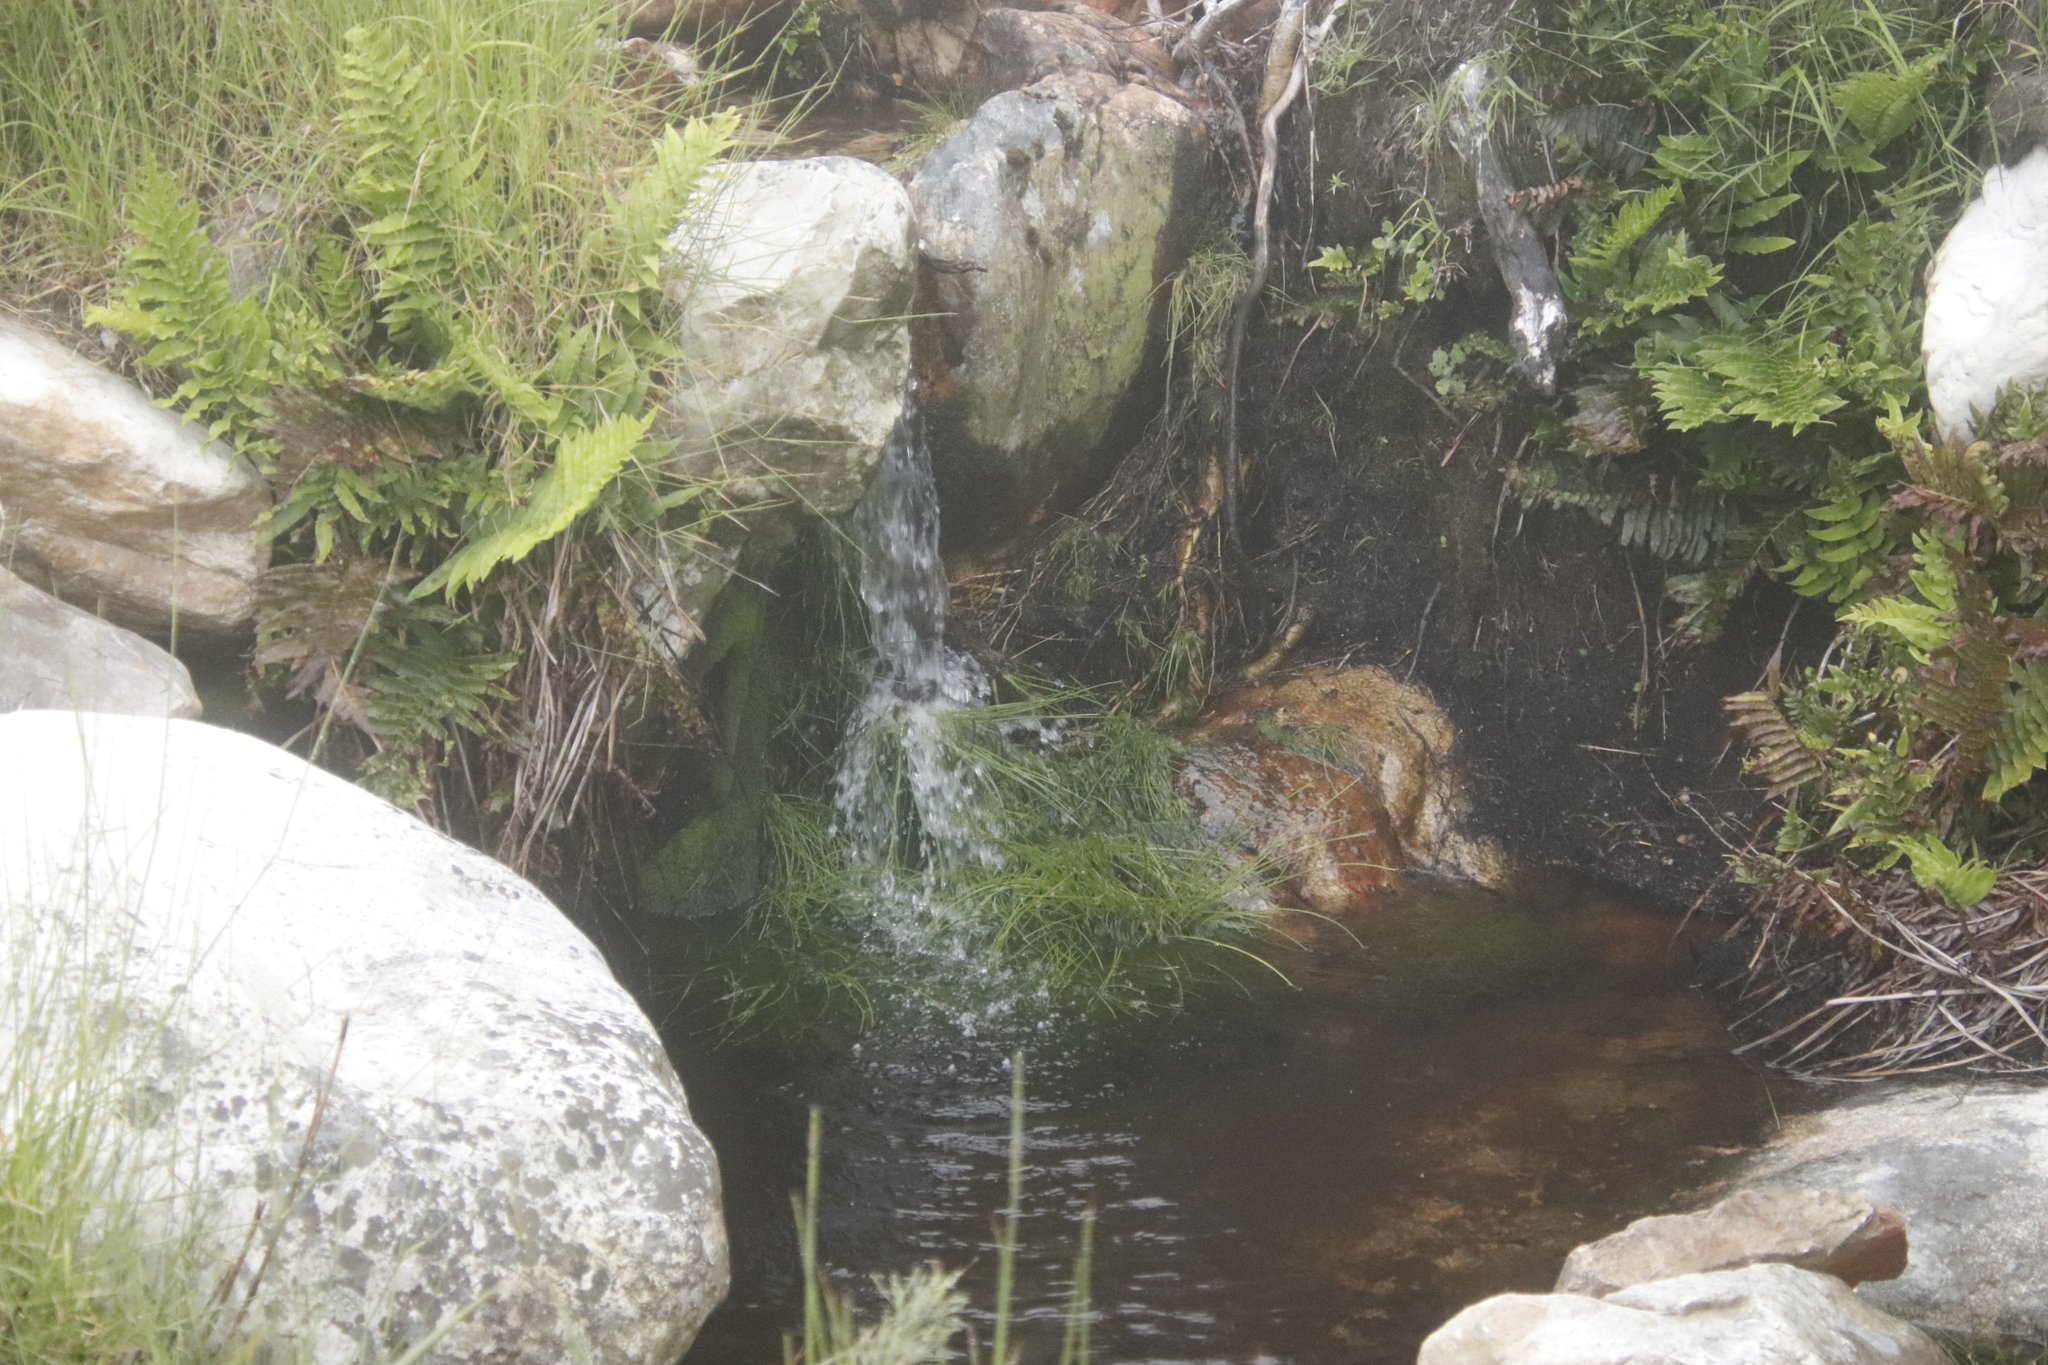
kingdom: Plantae
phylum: Tracheophyta
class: Polypodiopsida
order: Polypodiales
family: Blechnaceae
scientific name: Blechnaceae
